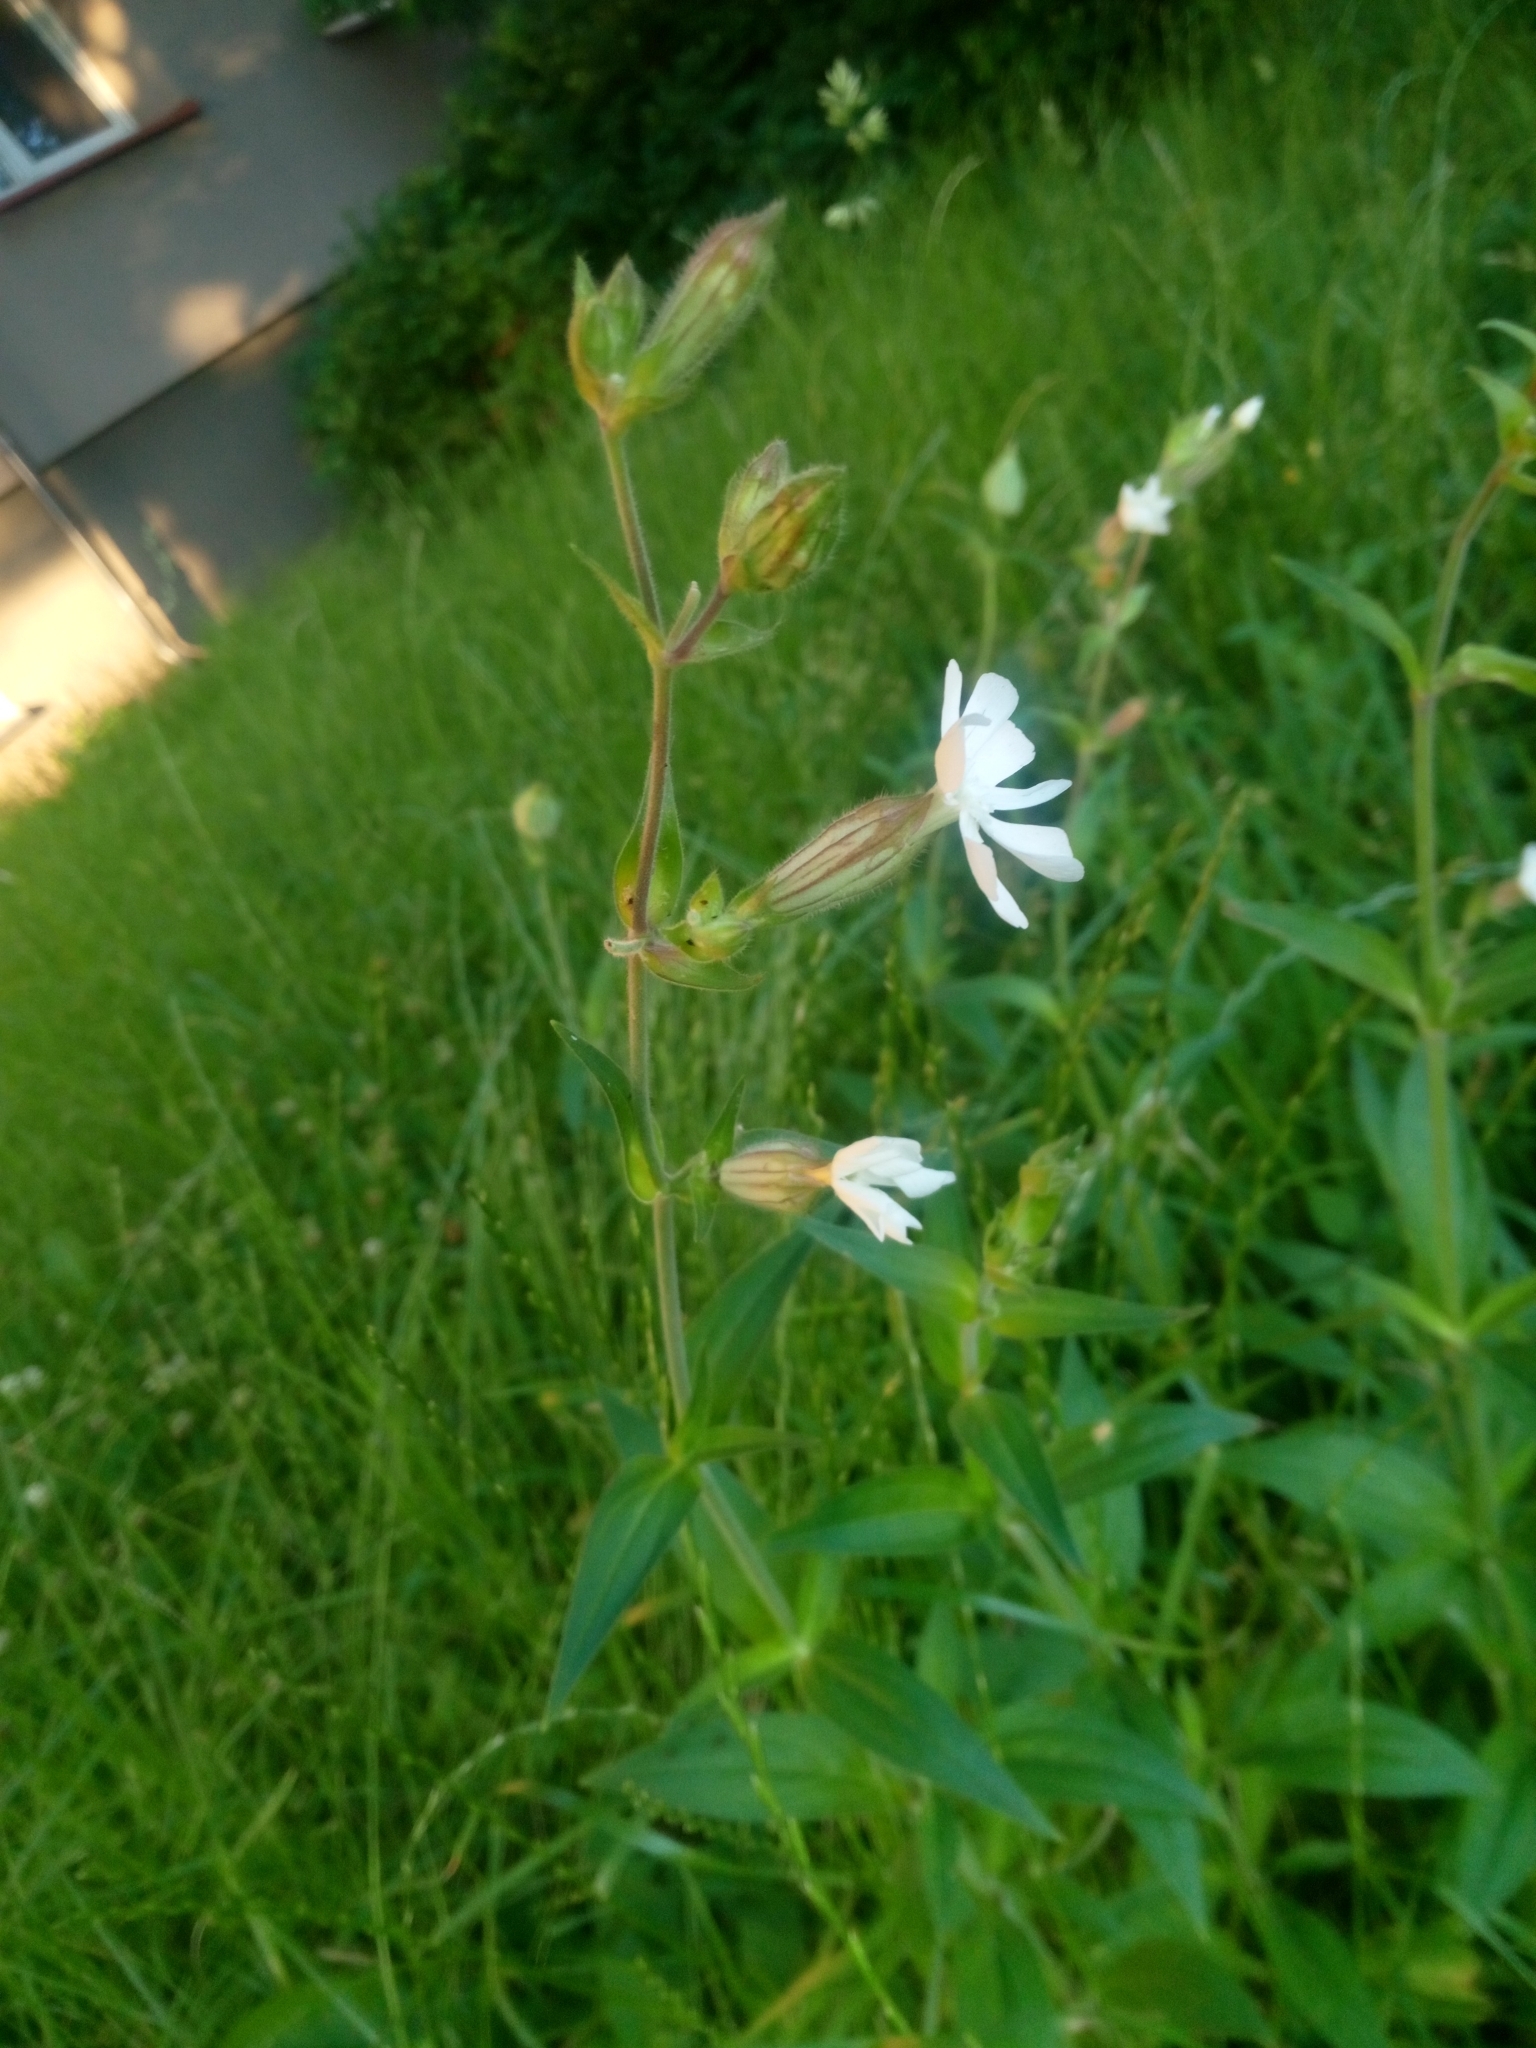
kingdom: Plantae
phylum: Tracheophyta
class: Magnoliopsida
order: Caryophyllales
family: Caryophyllaceae
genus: Silene
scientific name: Silene latifolia
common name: White campion
